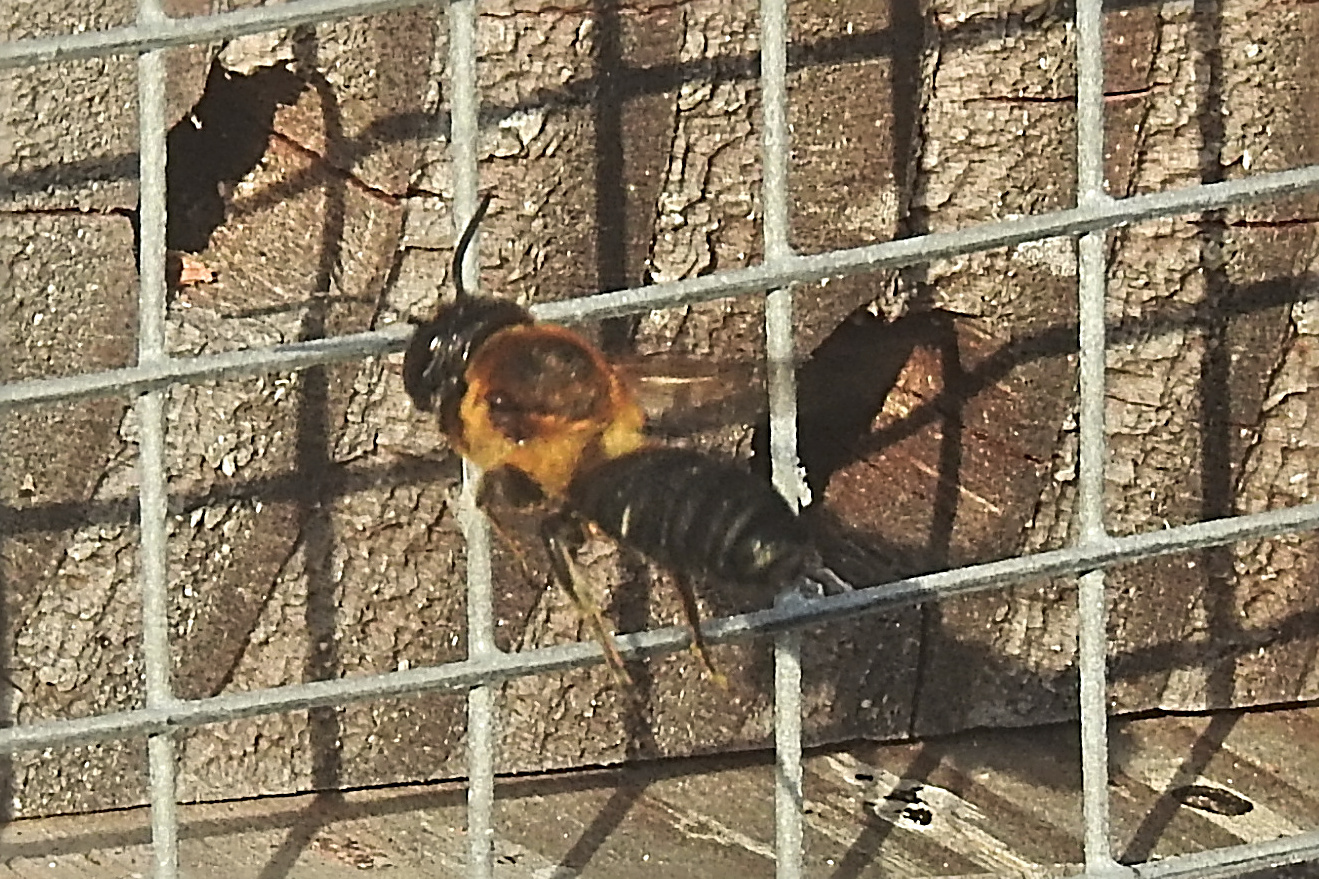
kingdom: Animalia
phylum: Arthropoda
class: Insecta
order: Hymenoptera
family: Megachilidae
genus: Megachile
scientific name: Megachile sculpturalis
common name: Sculptured resin bee
